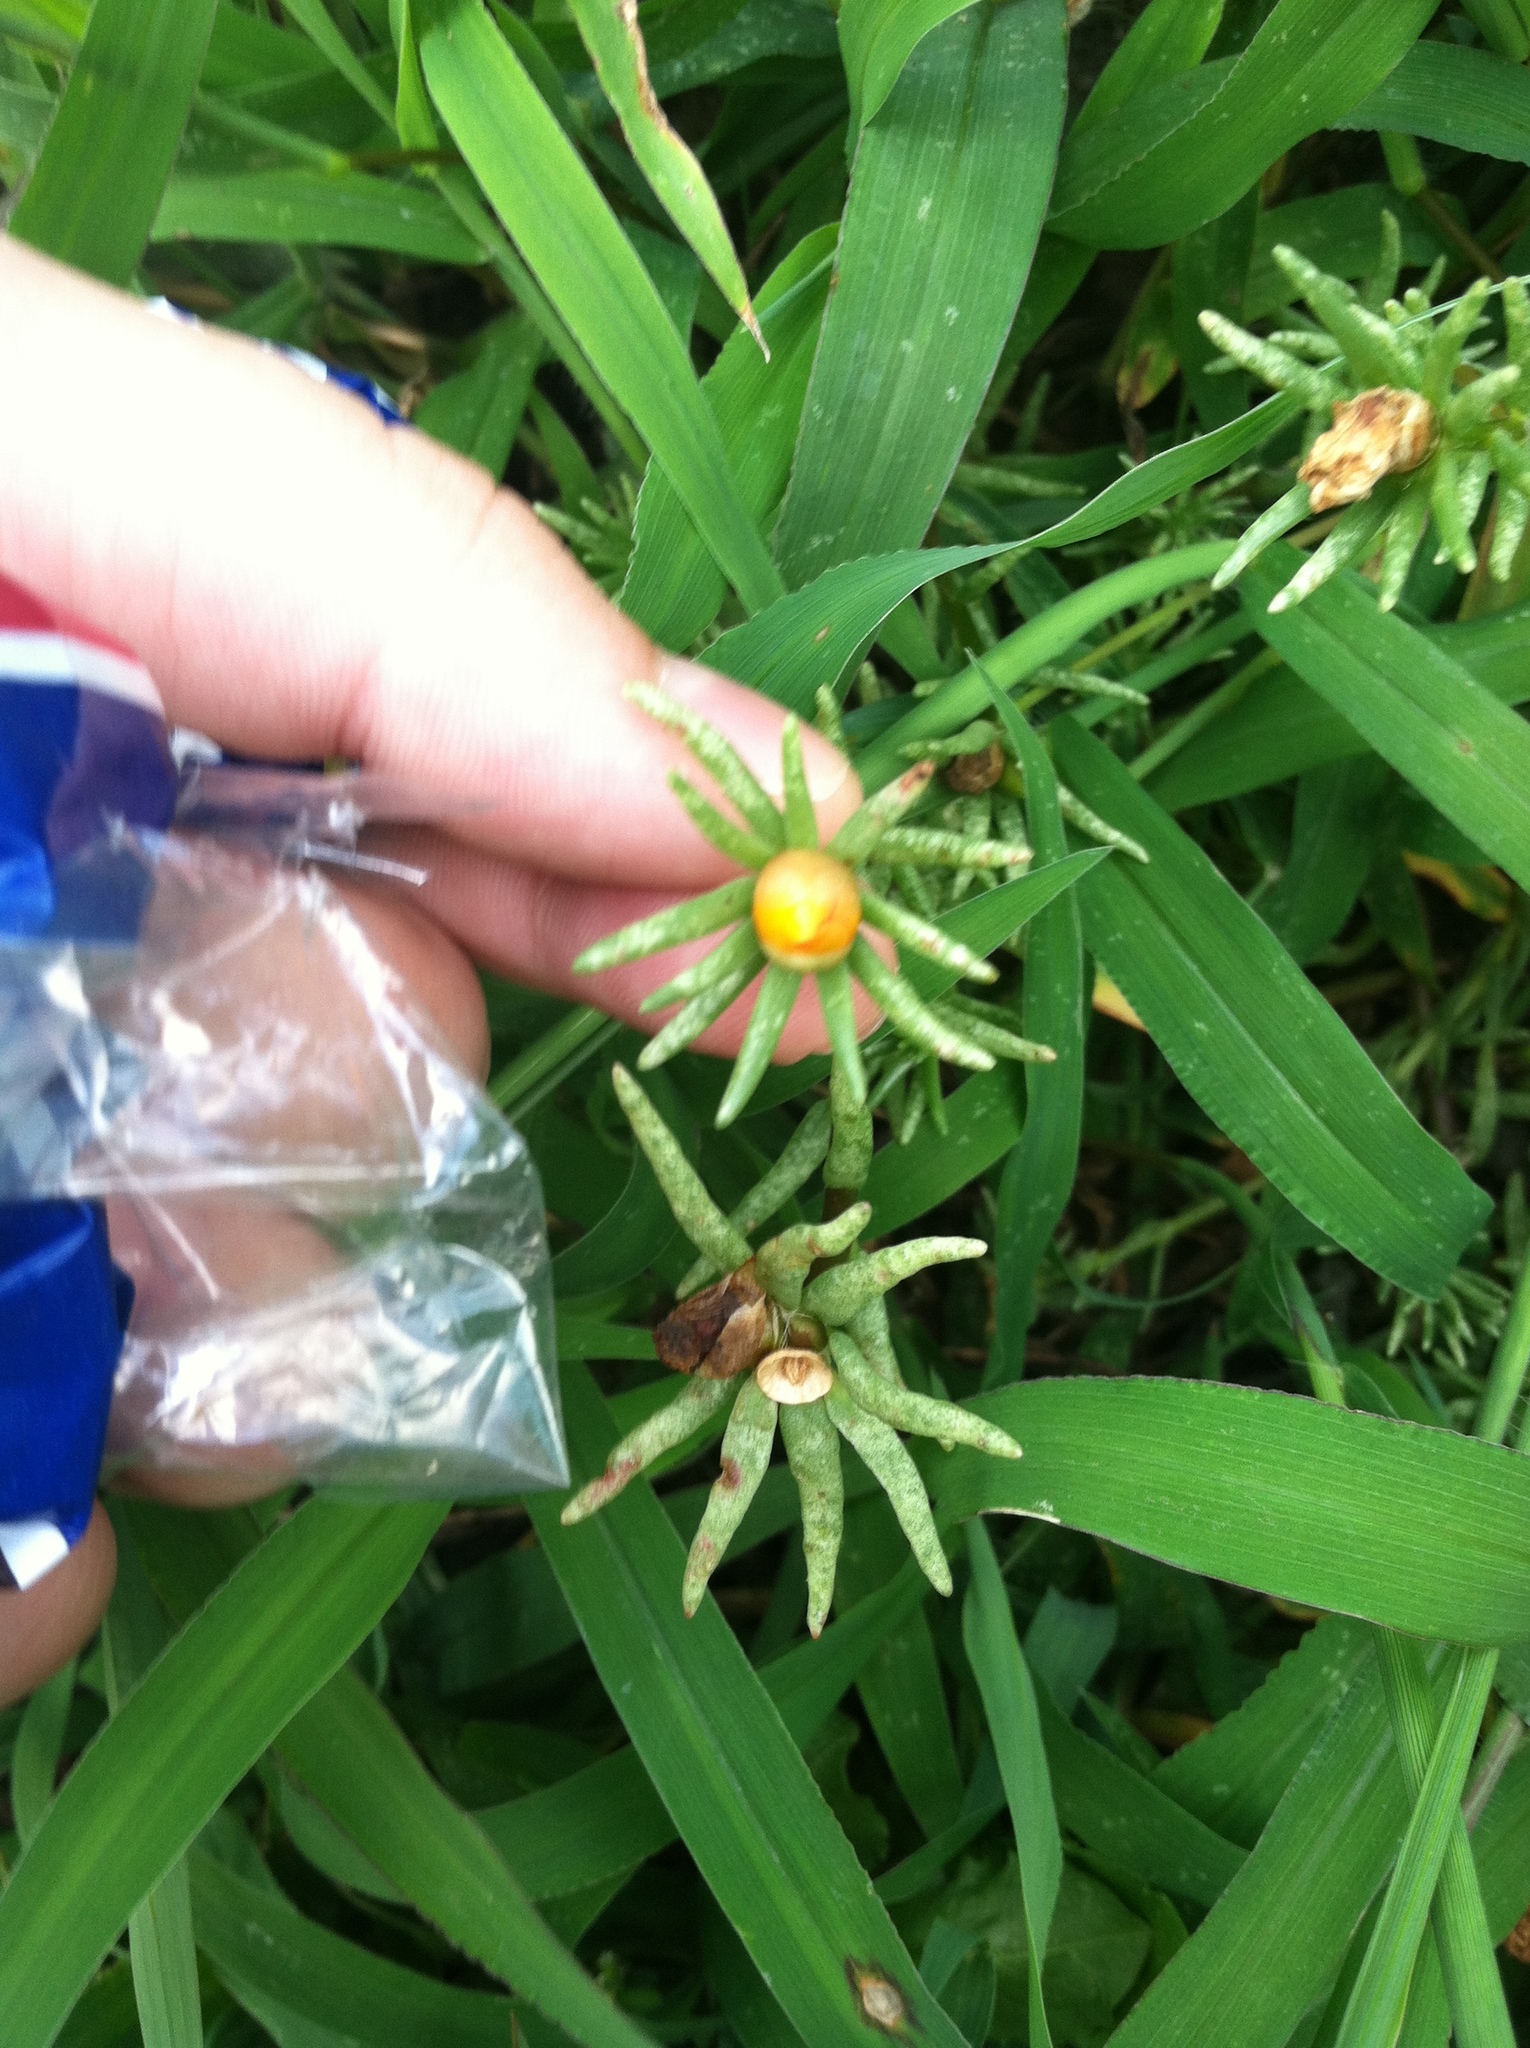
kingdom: Plantae
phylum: Tracheophyta
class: Magnoliopsida
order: Caryophyllales
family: Portulacaceae
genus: Portulaca
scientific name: Portulaca grandiflora
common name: Moss-rose
